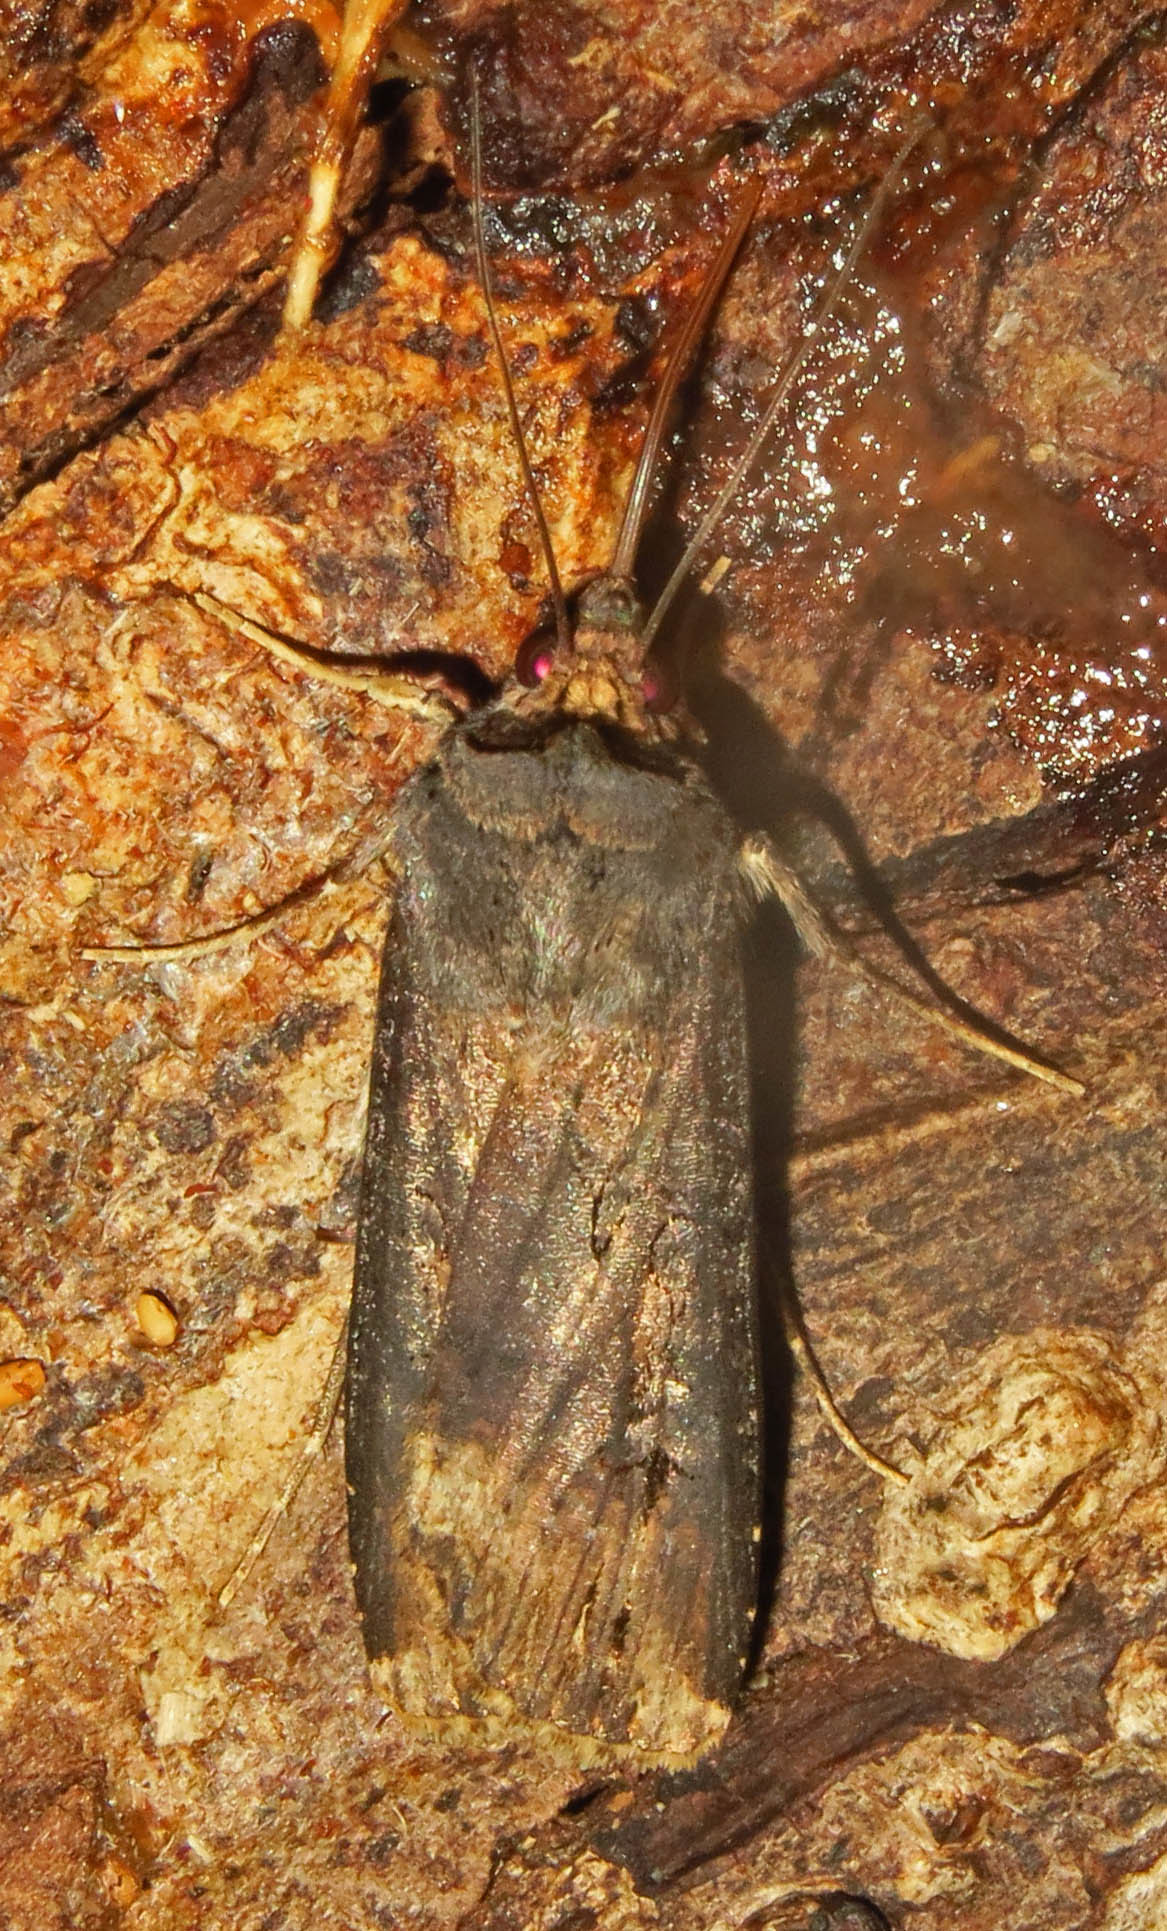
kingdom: Animalia
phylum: Arthropoda
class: Insecta
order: Lepidoptera
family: Noctuidae
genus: Agrotis
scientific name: Agrotis ipsilon
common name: Dark sword-grass
